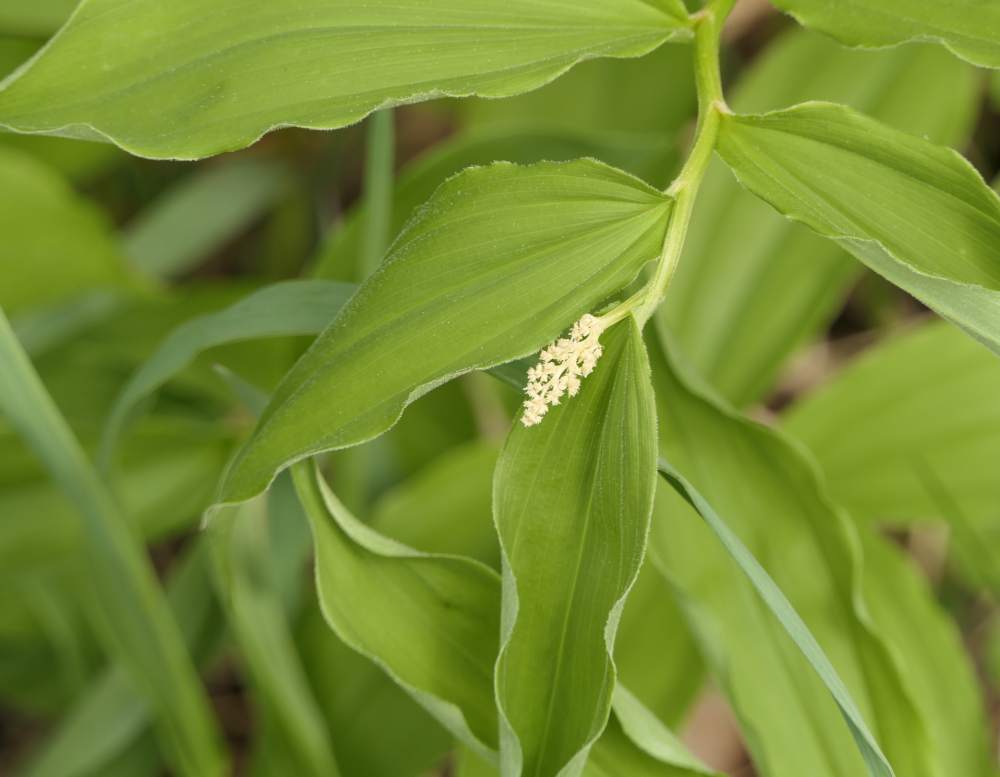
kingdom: Plantae
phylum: Tracheophyta
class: Liliopsida
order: Asparagales
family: Asparagaceae
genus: Maianthemum
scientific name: Maianthemum racemosum
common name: False spikenard
